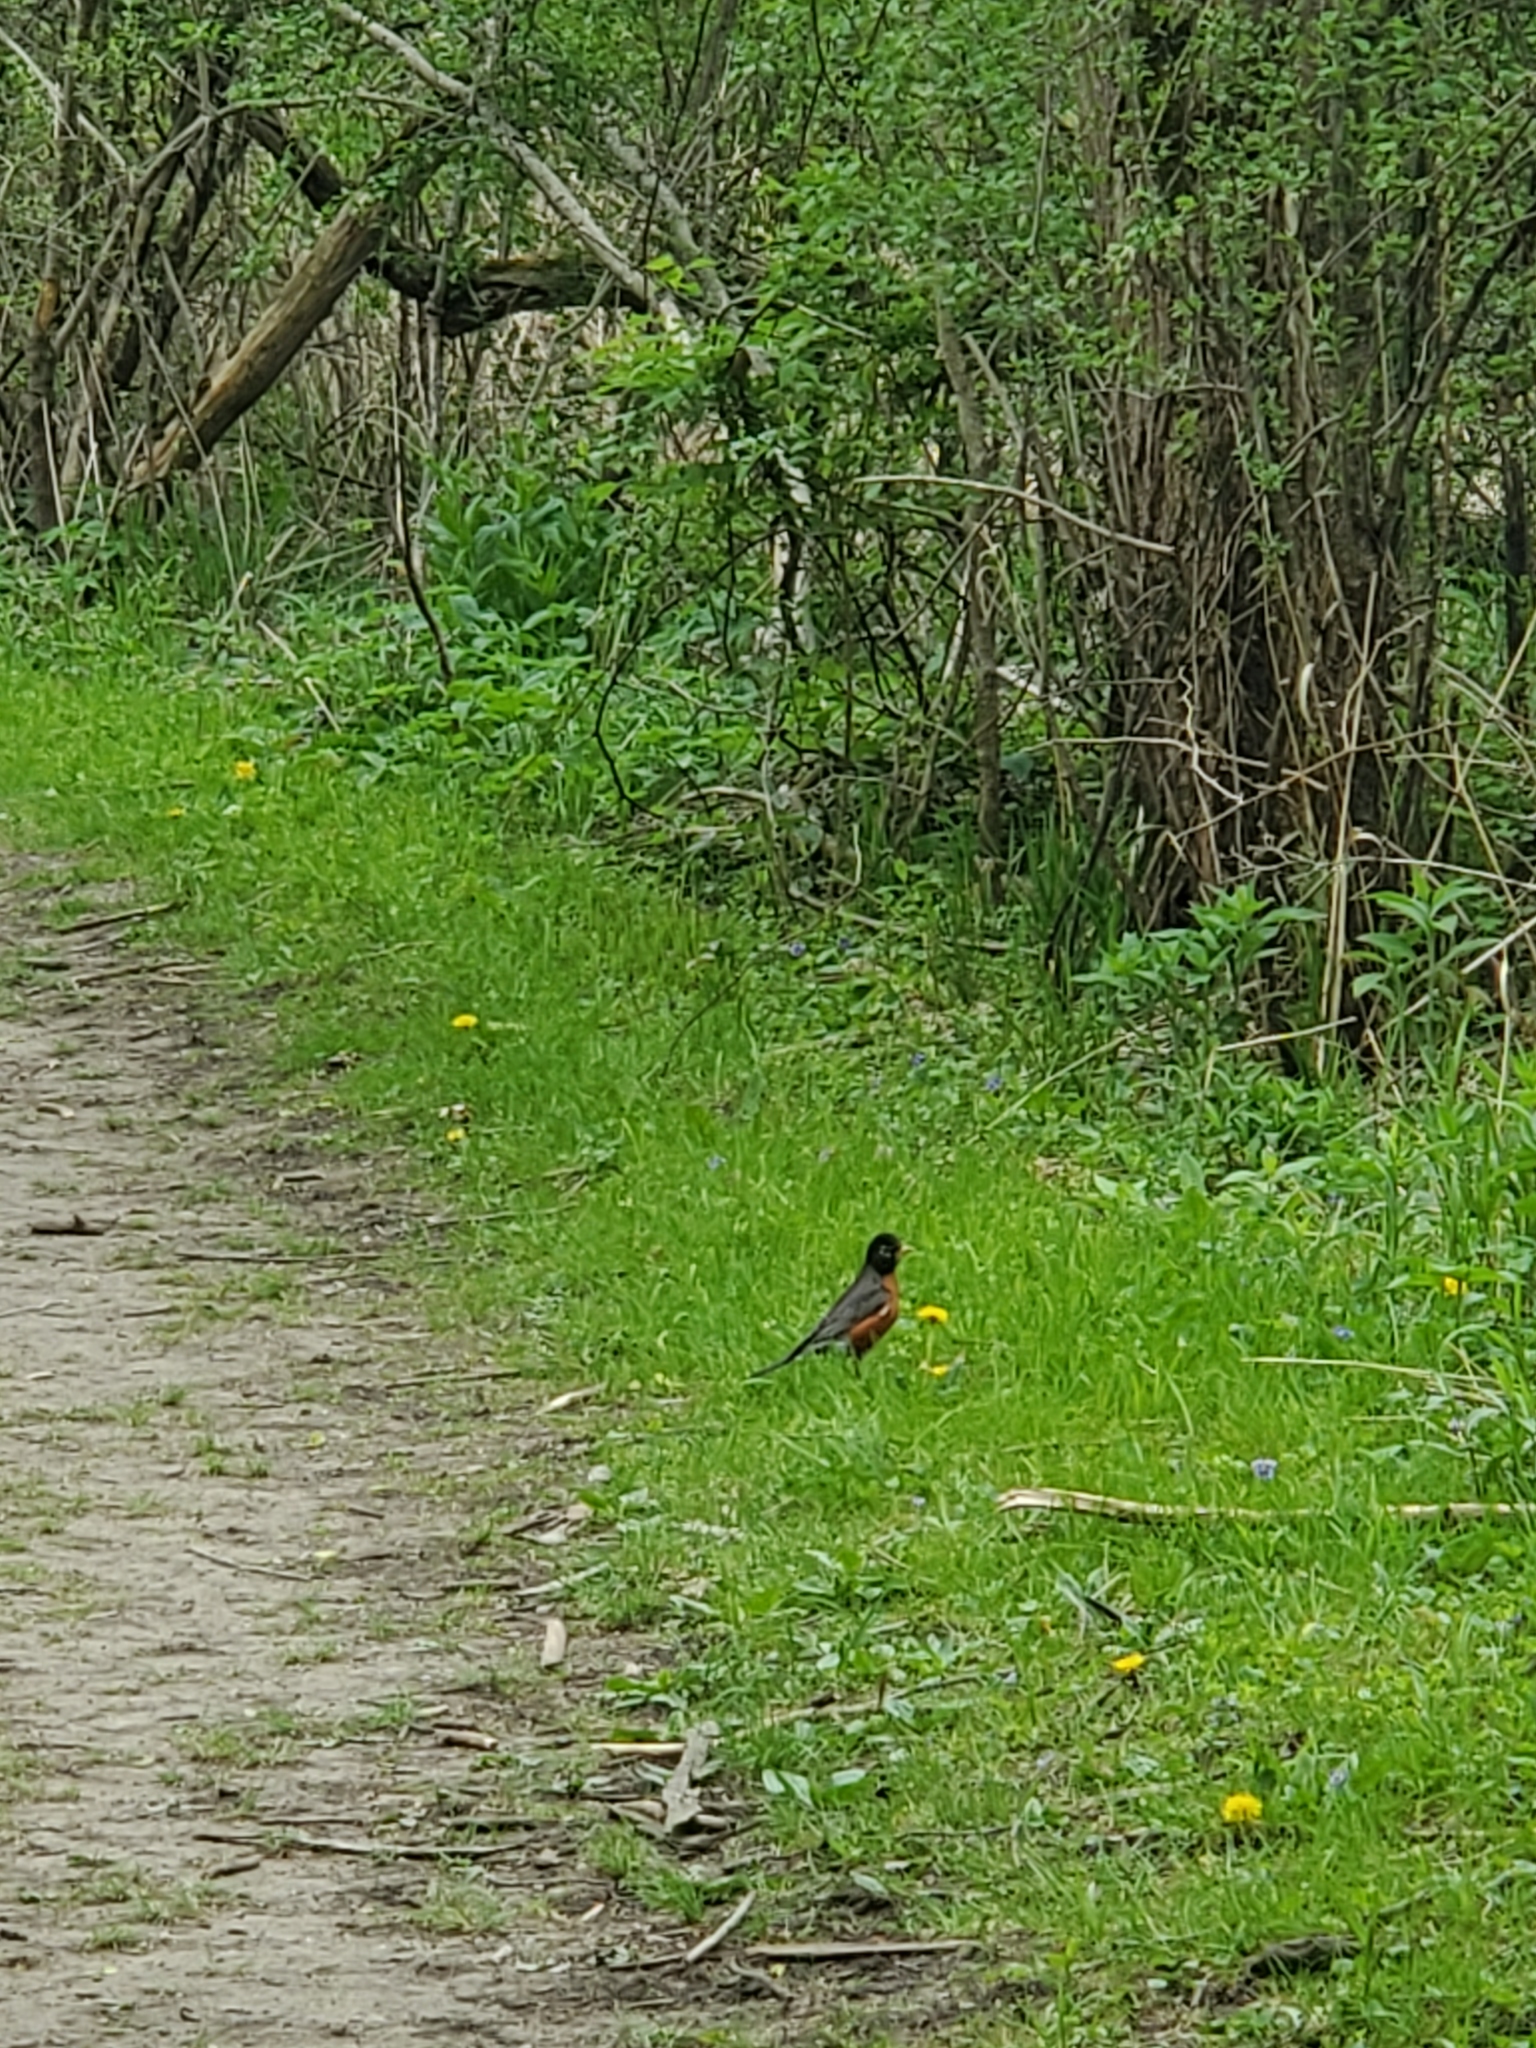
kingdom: Animalia
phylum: Chordata
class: Aves
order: Passeriformes
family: Turdidae
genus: Turdus
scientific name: Turdus migratorius
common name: American robin
